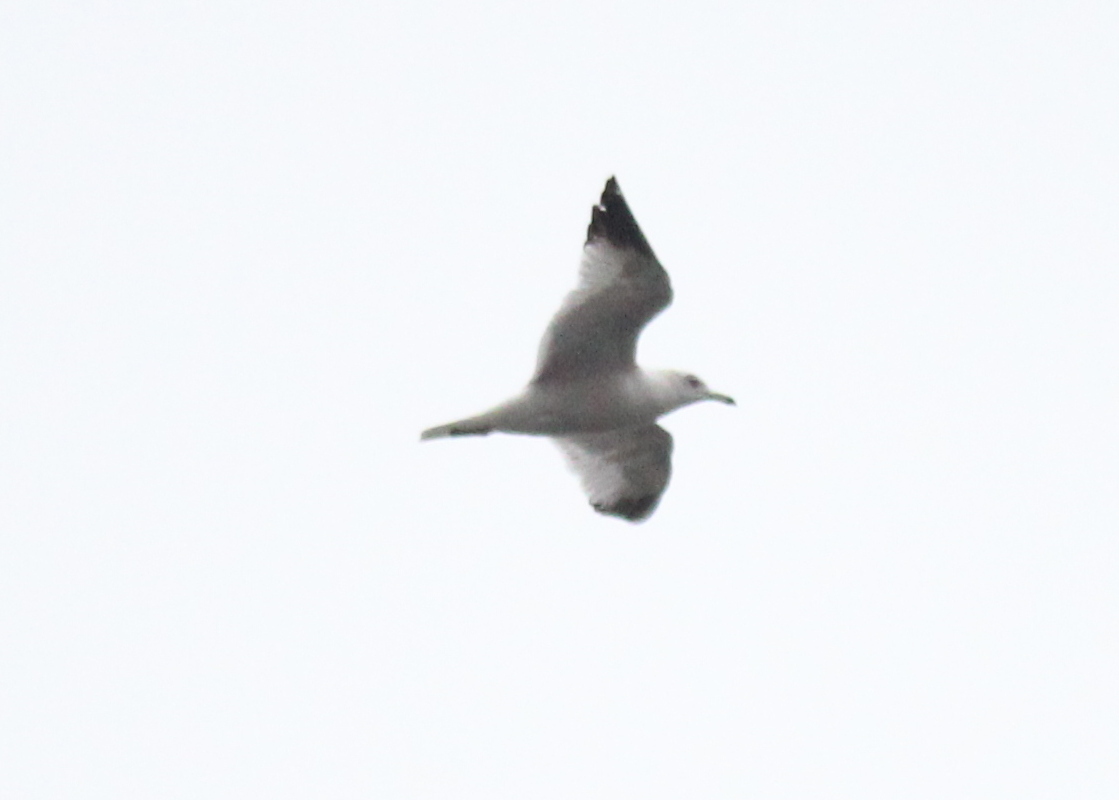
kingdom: Animalia
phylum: Chordata
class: Aves
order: Charadriiformes
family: Laridae
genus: Larus
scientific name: Larus delawarensis
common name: Ring-billed gull
